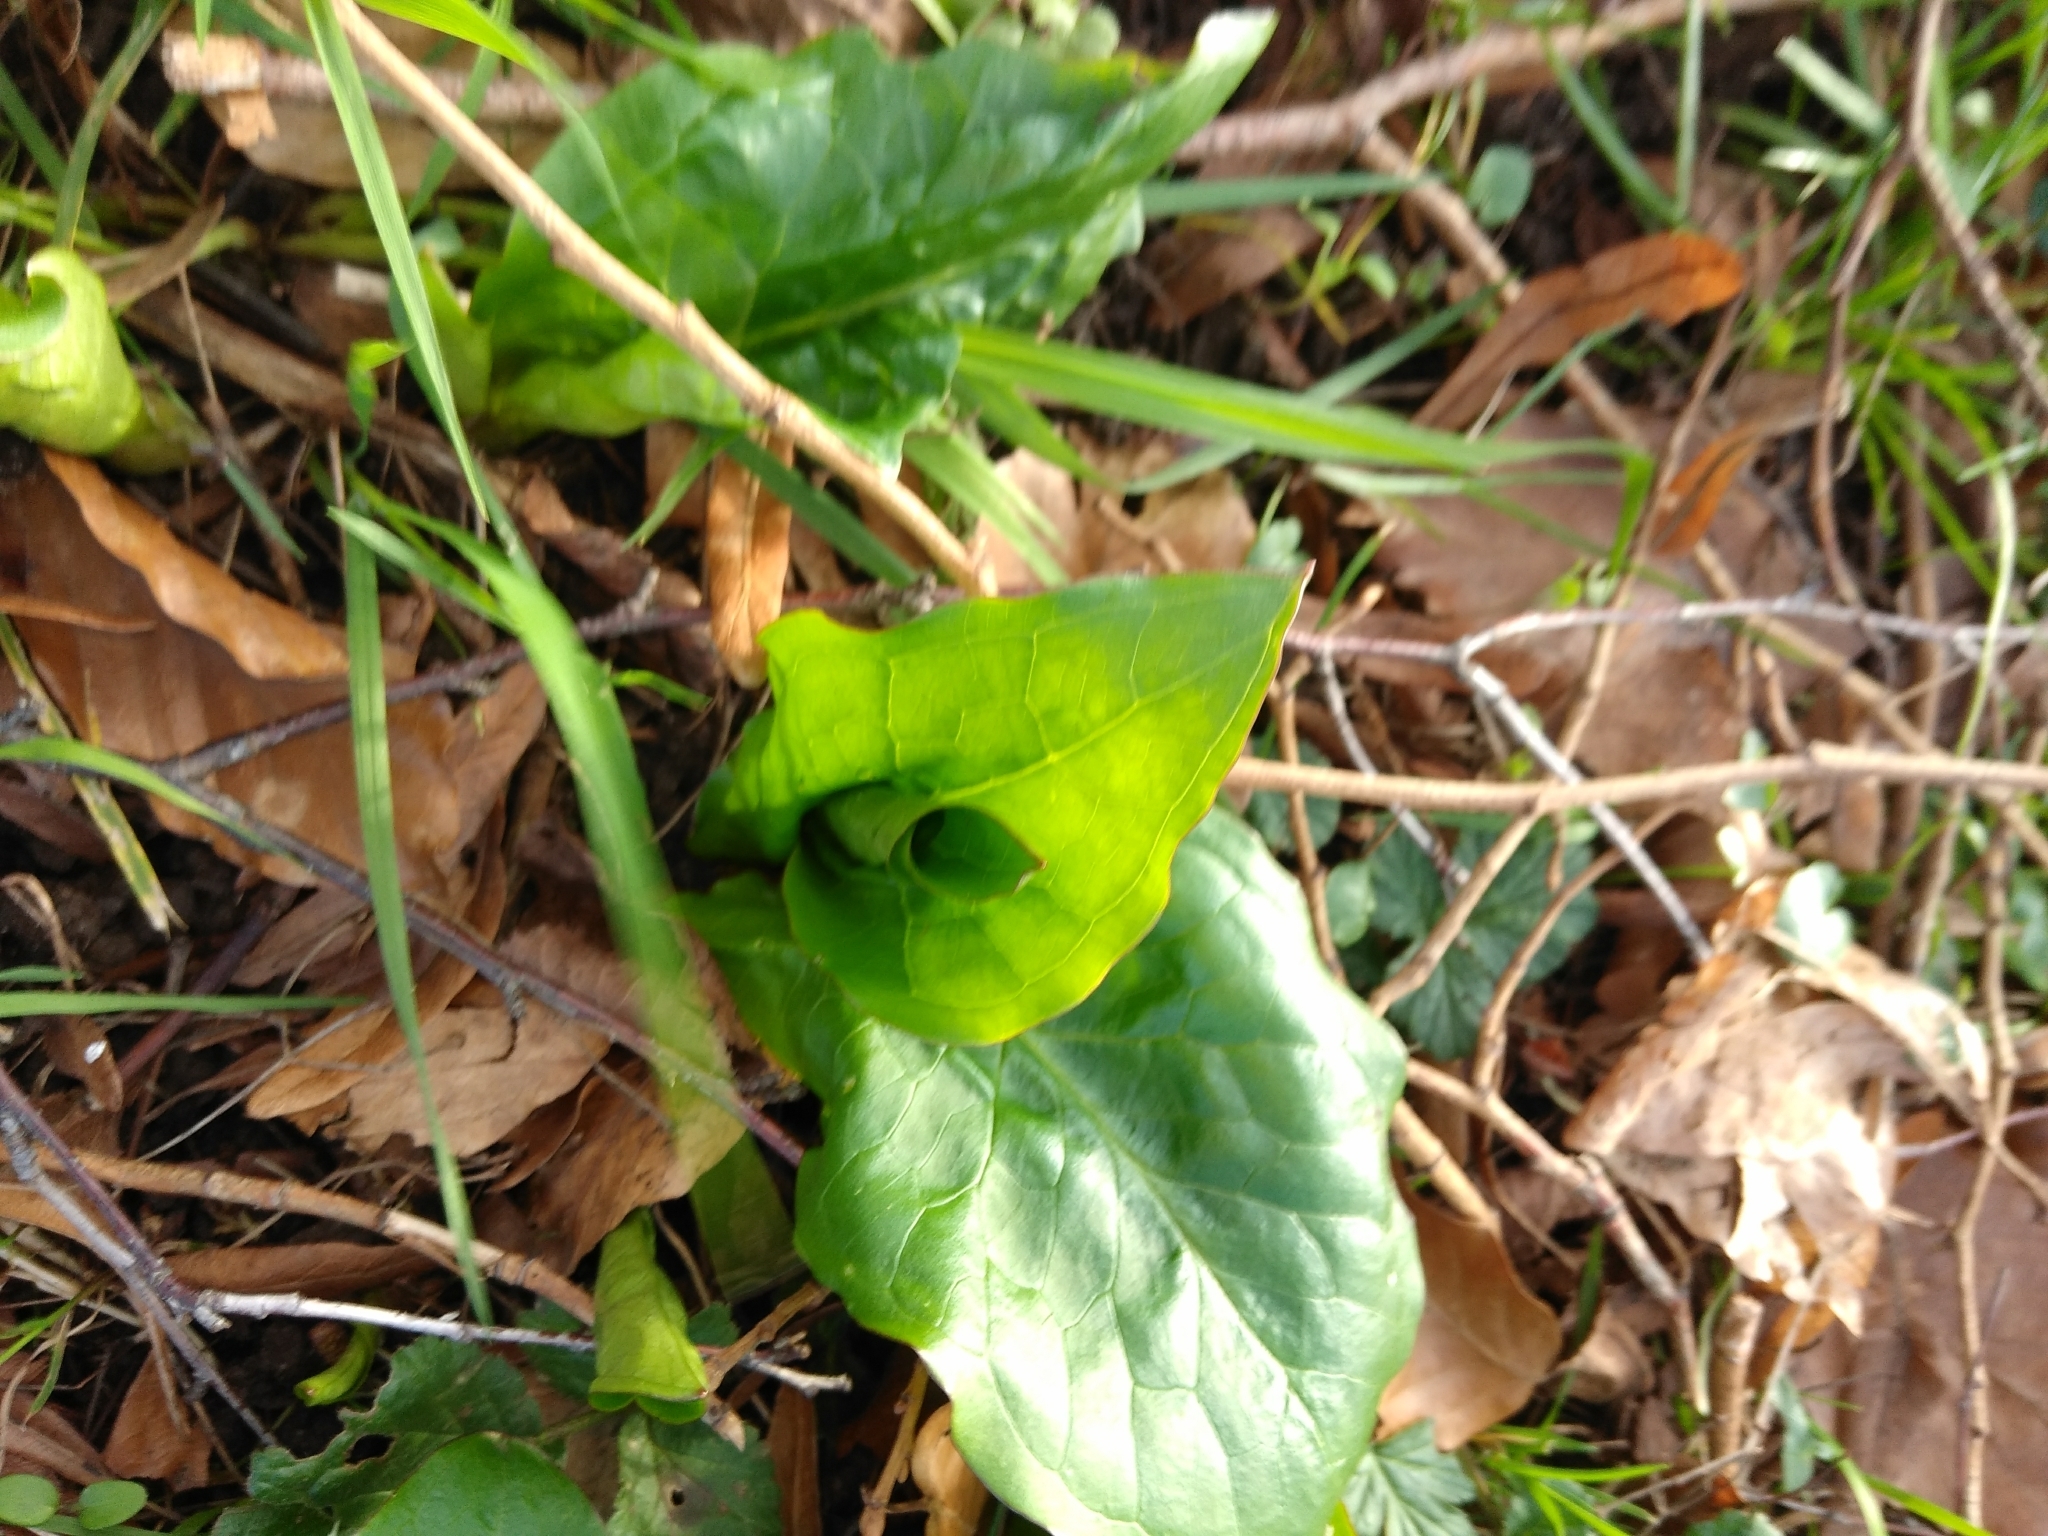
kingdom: Plantae
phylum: Tracheophyta
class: Liliopsida
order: Alismatales
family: Araceae
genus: Arum
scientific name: Arum maculatum
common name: Lords-and-ladies
